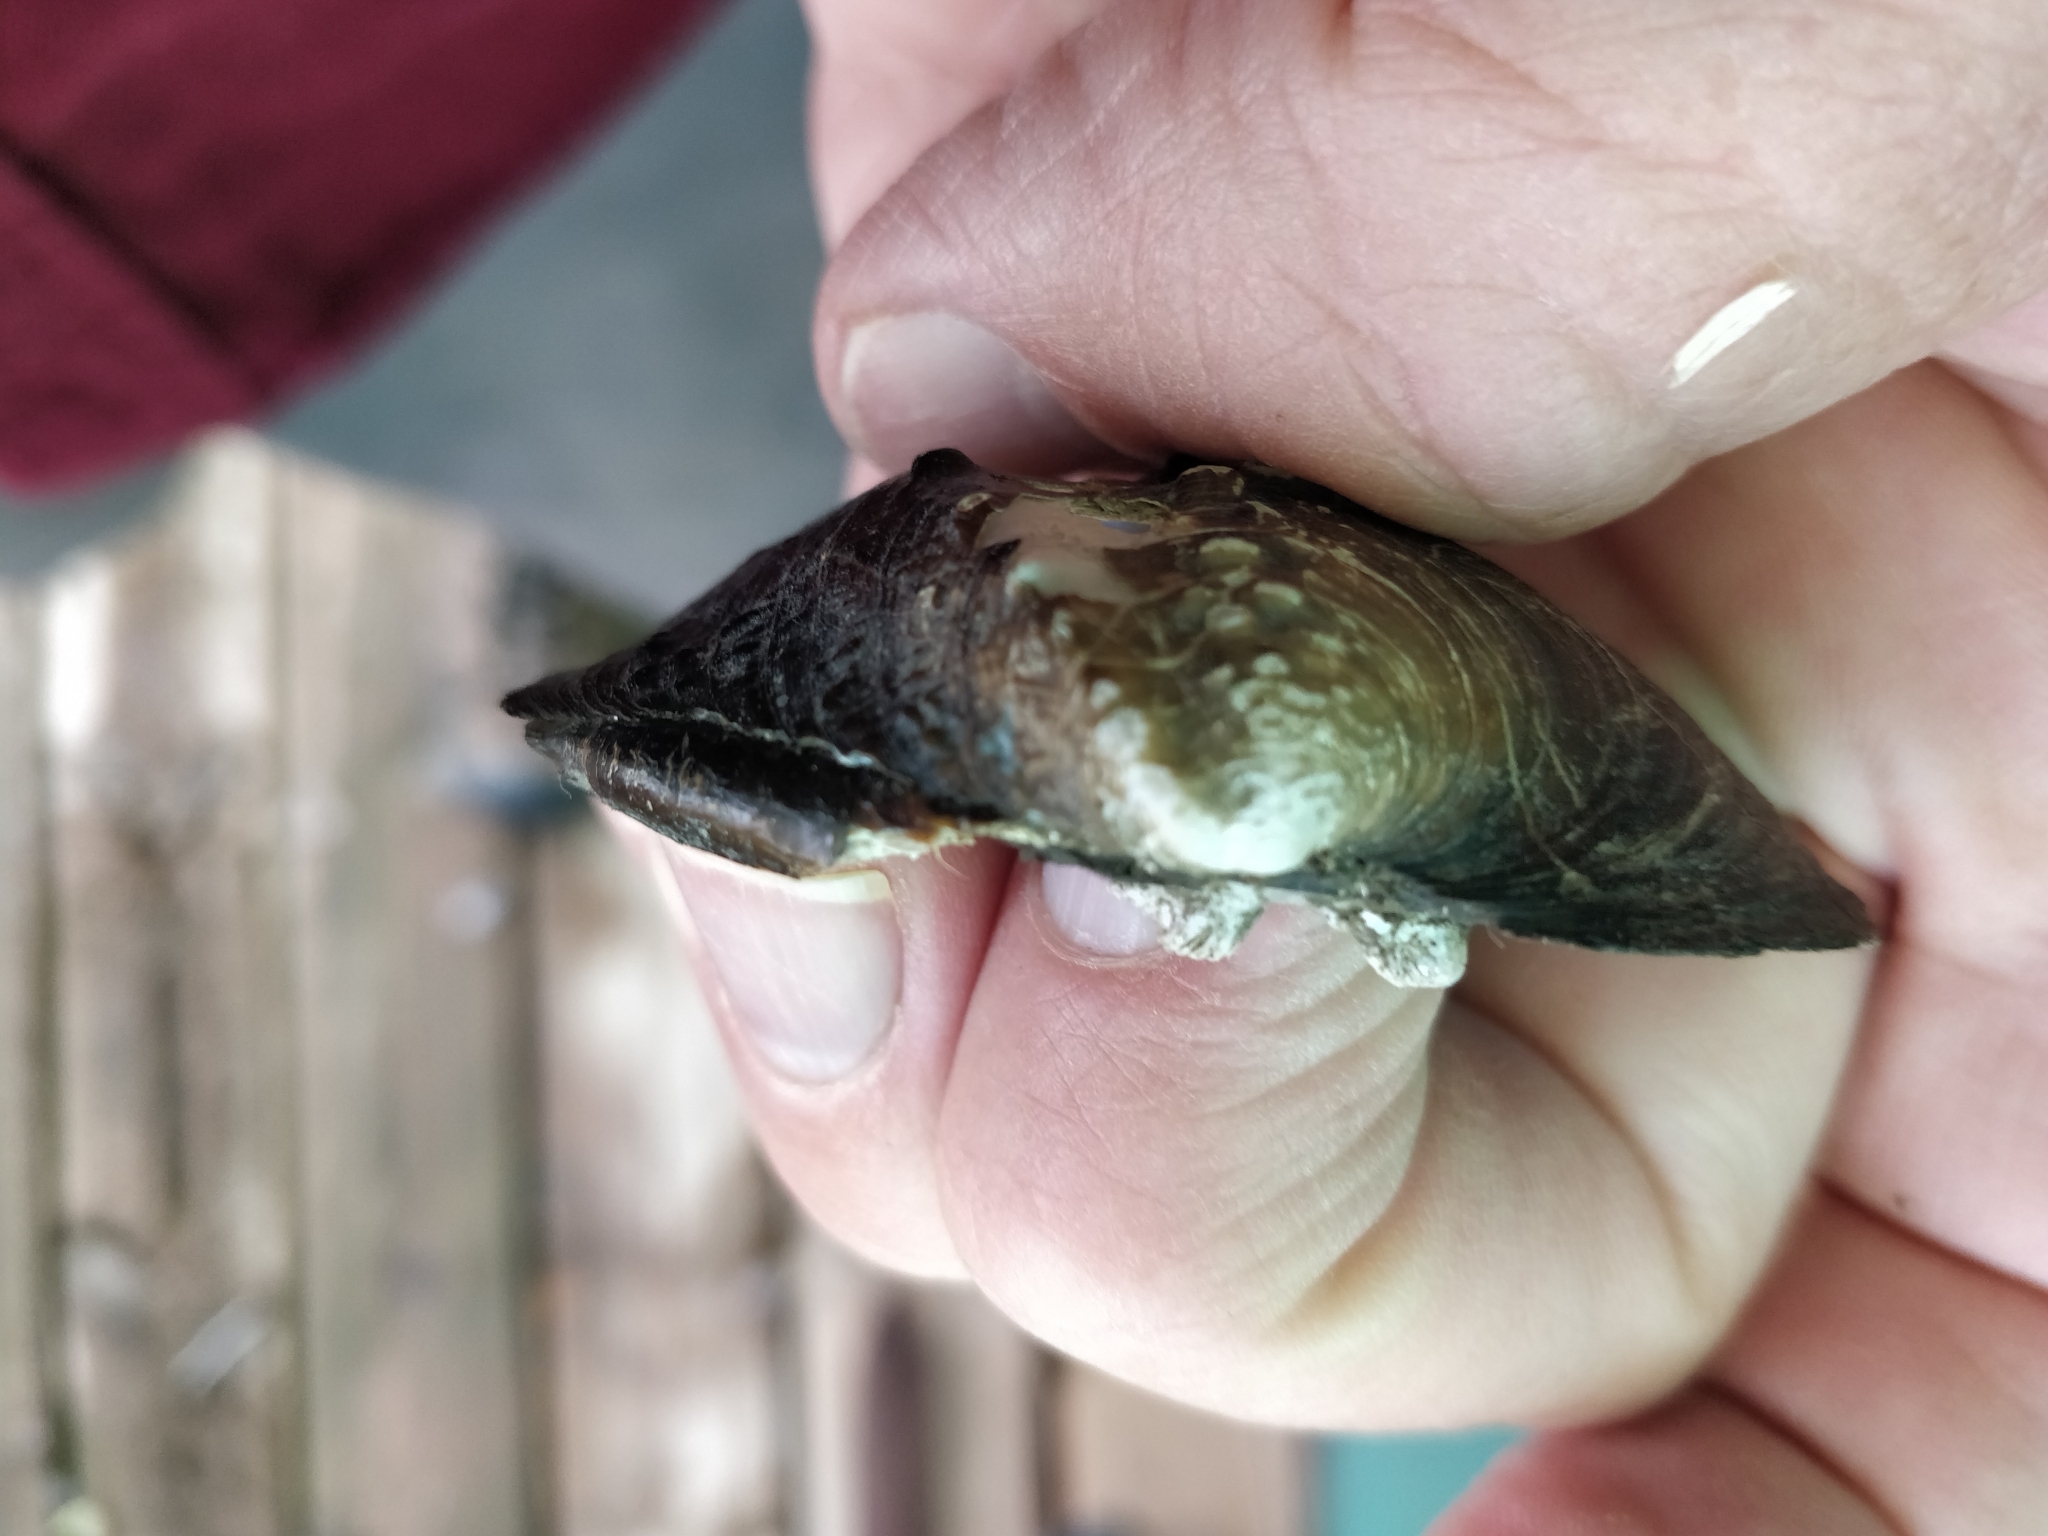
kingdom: Animalia
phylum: Mollusca
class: Bivalvia
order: Unionida
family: Unionidae
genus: Quadrula
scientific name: Quadrula quadrula
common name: Mapleleaf
